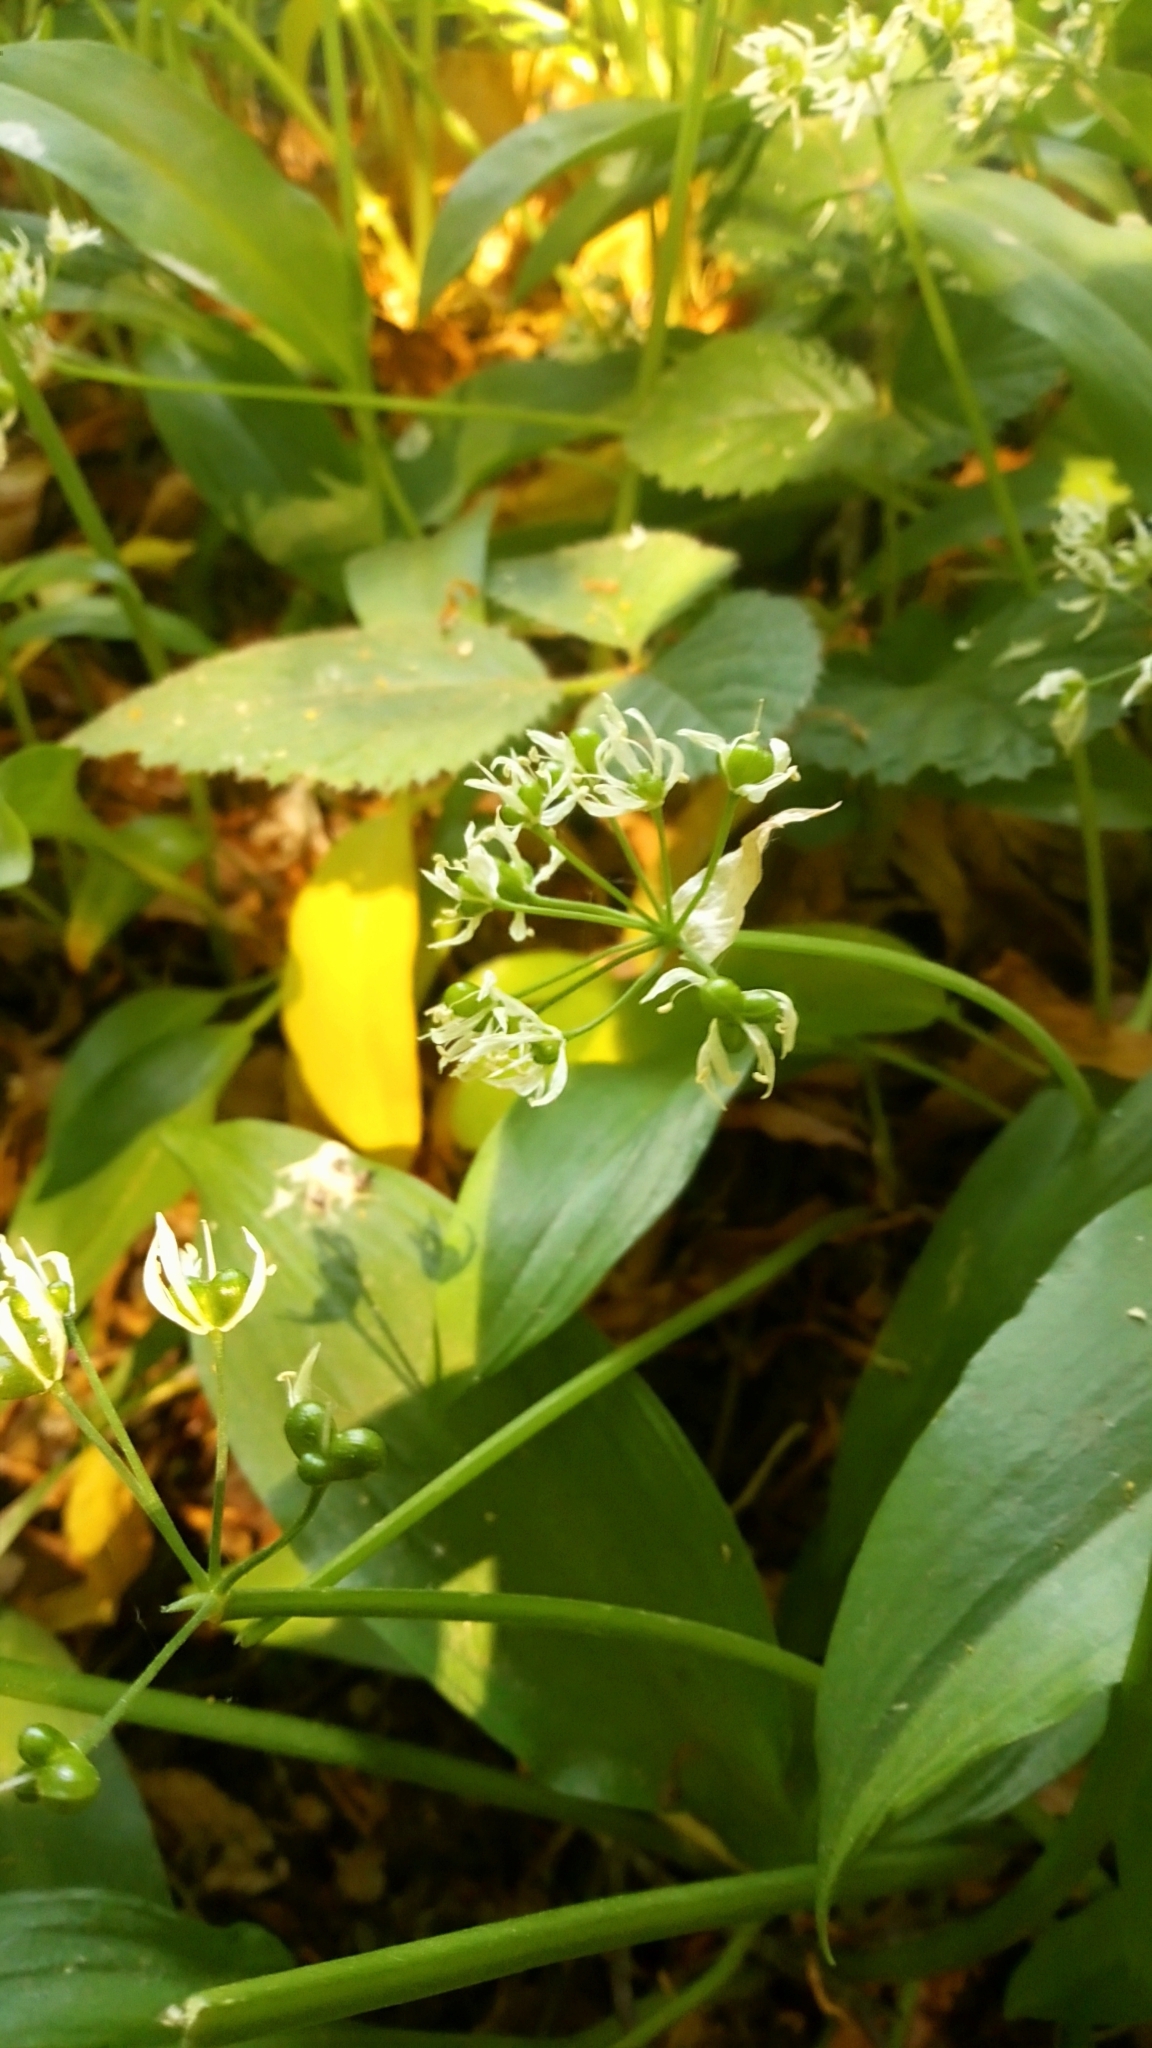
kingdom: Plantae
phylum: Tracheophyta
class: Liliopsida
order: Asparagales
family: Amaryllidaceae
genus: Allium
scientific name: Allium ursinum
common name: Ramsons
